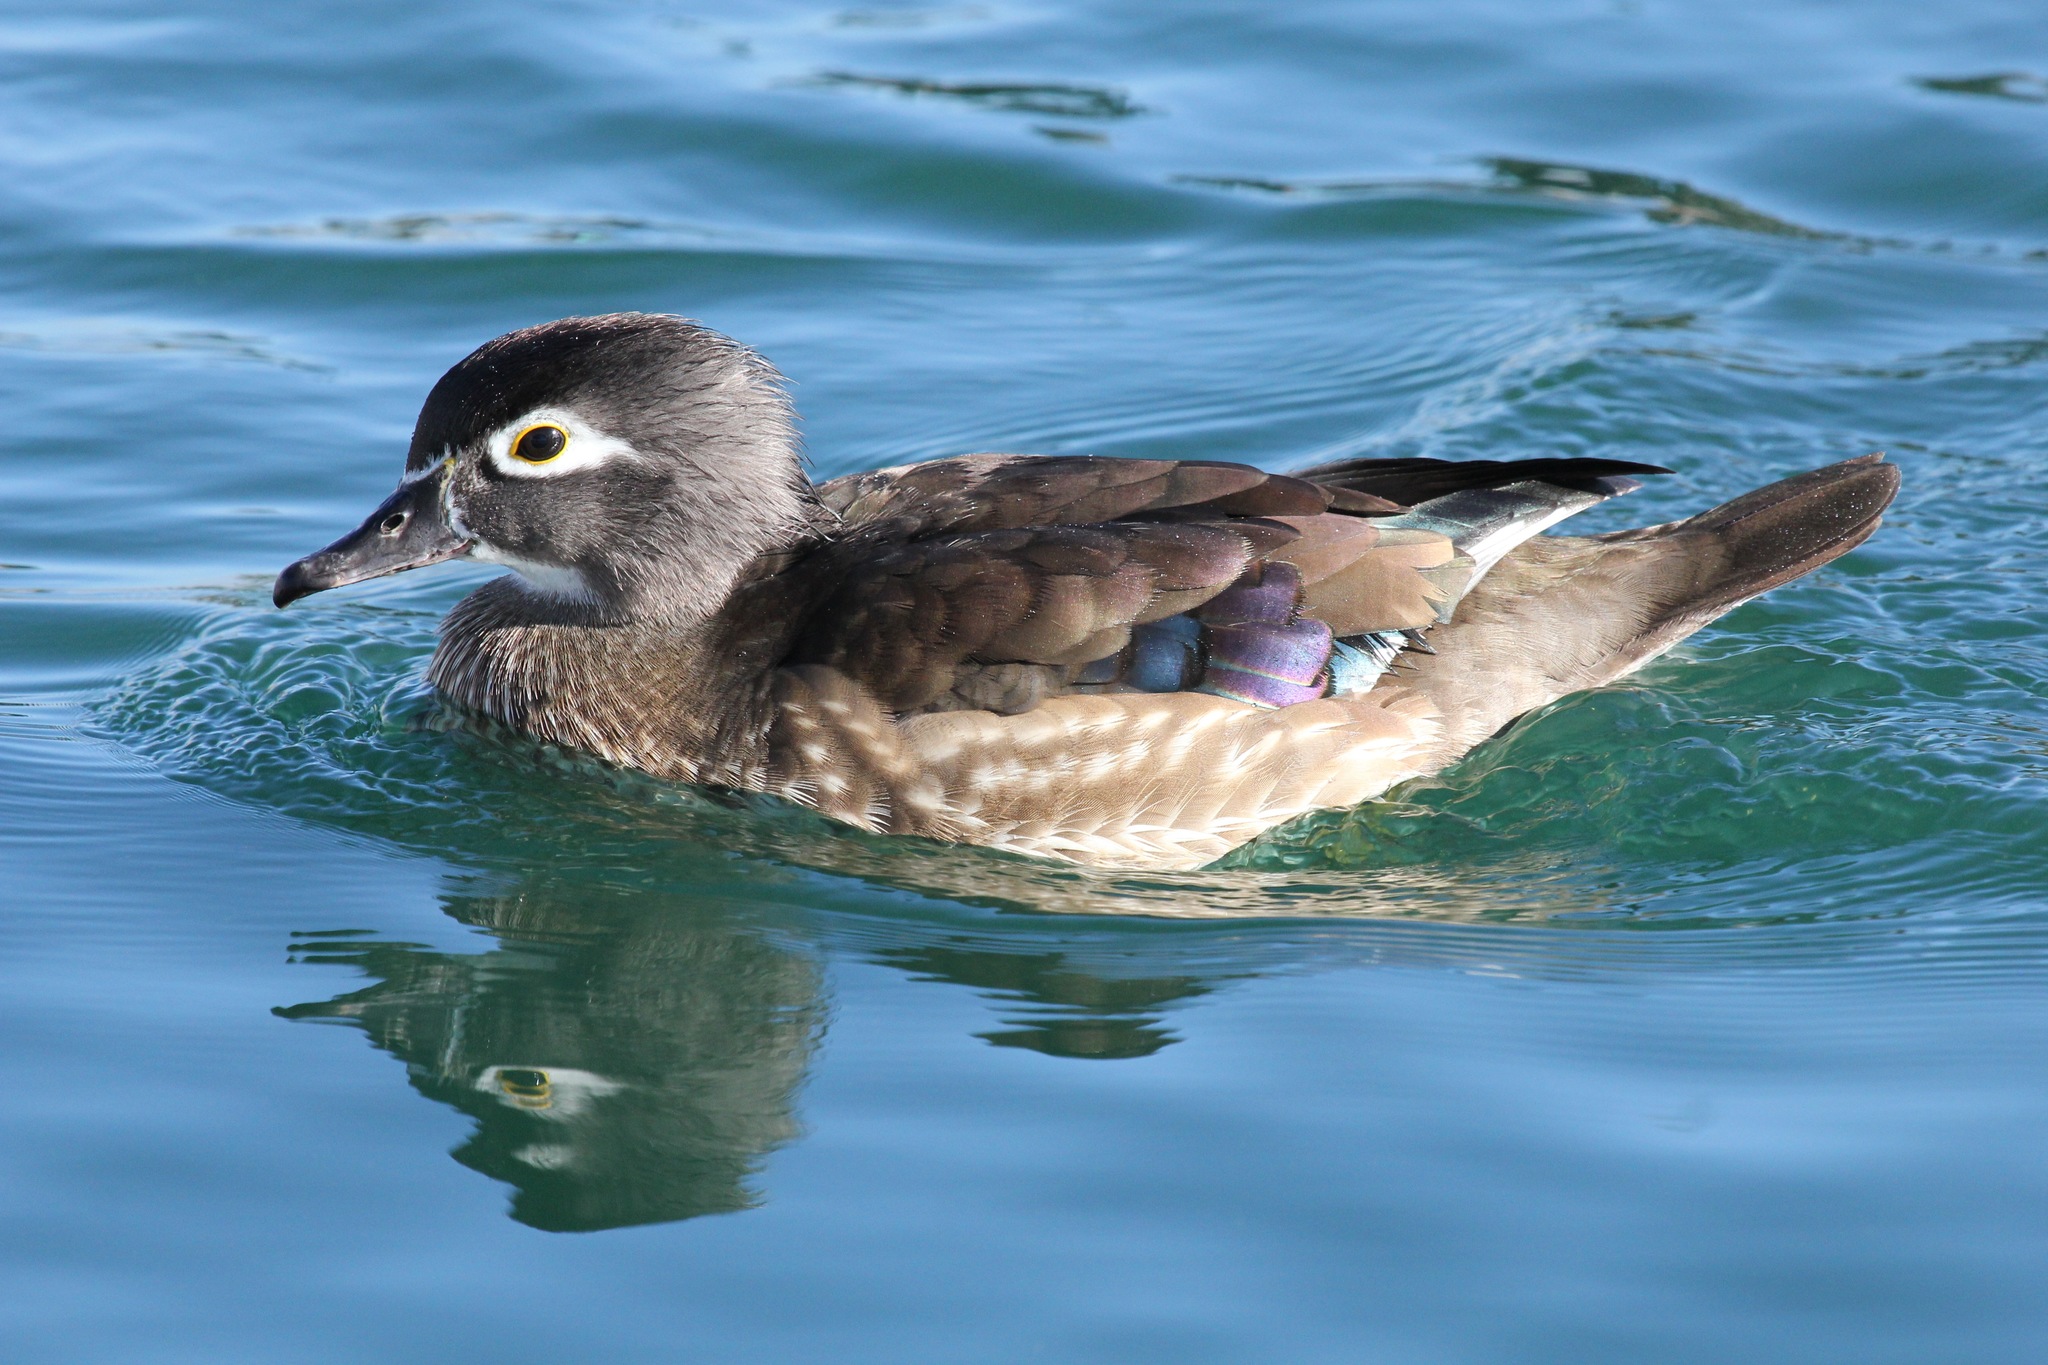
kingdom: Animalia
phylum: Chordata
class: Aves
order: Anseriformes
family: Anatidae
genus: Aix
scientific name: Aix sponsa
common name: Wood duck
